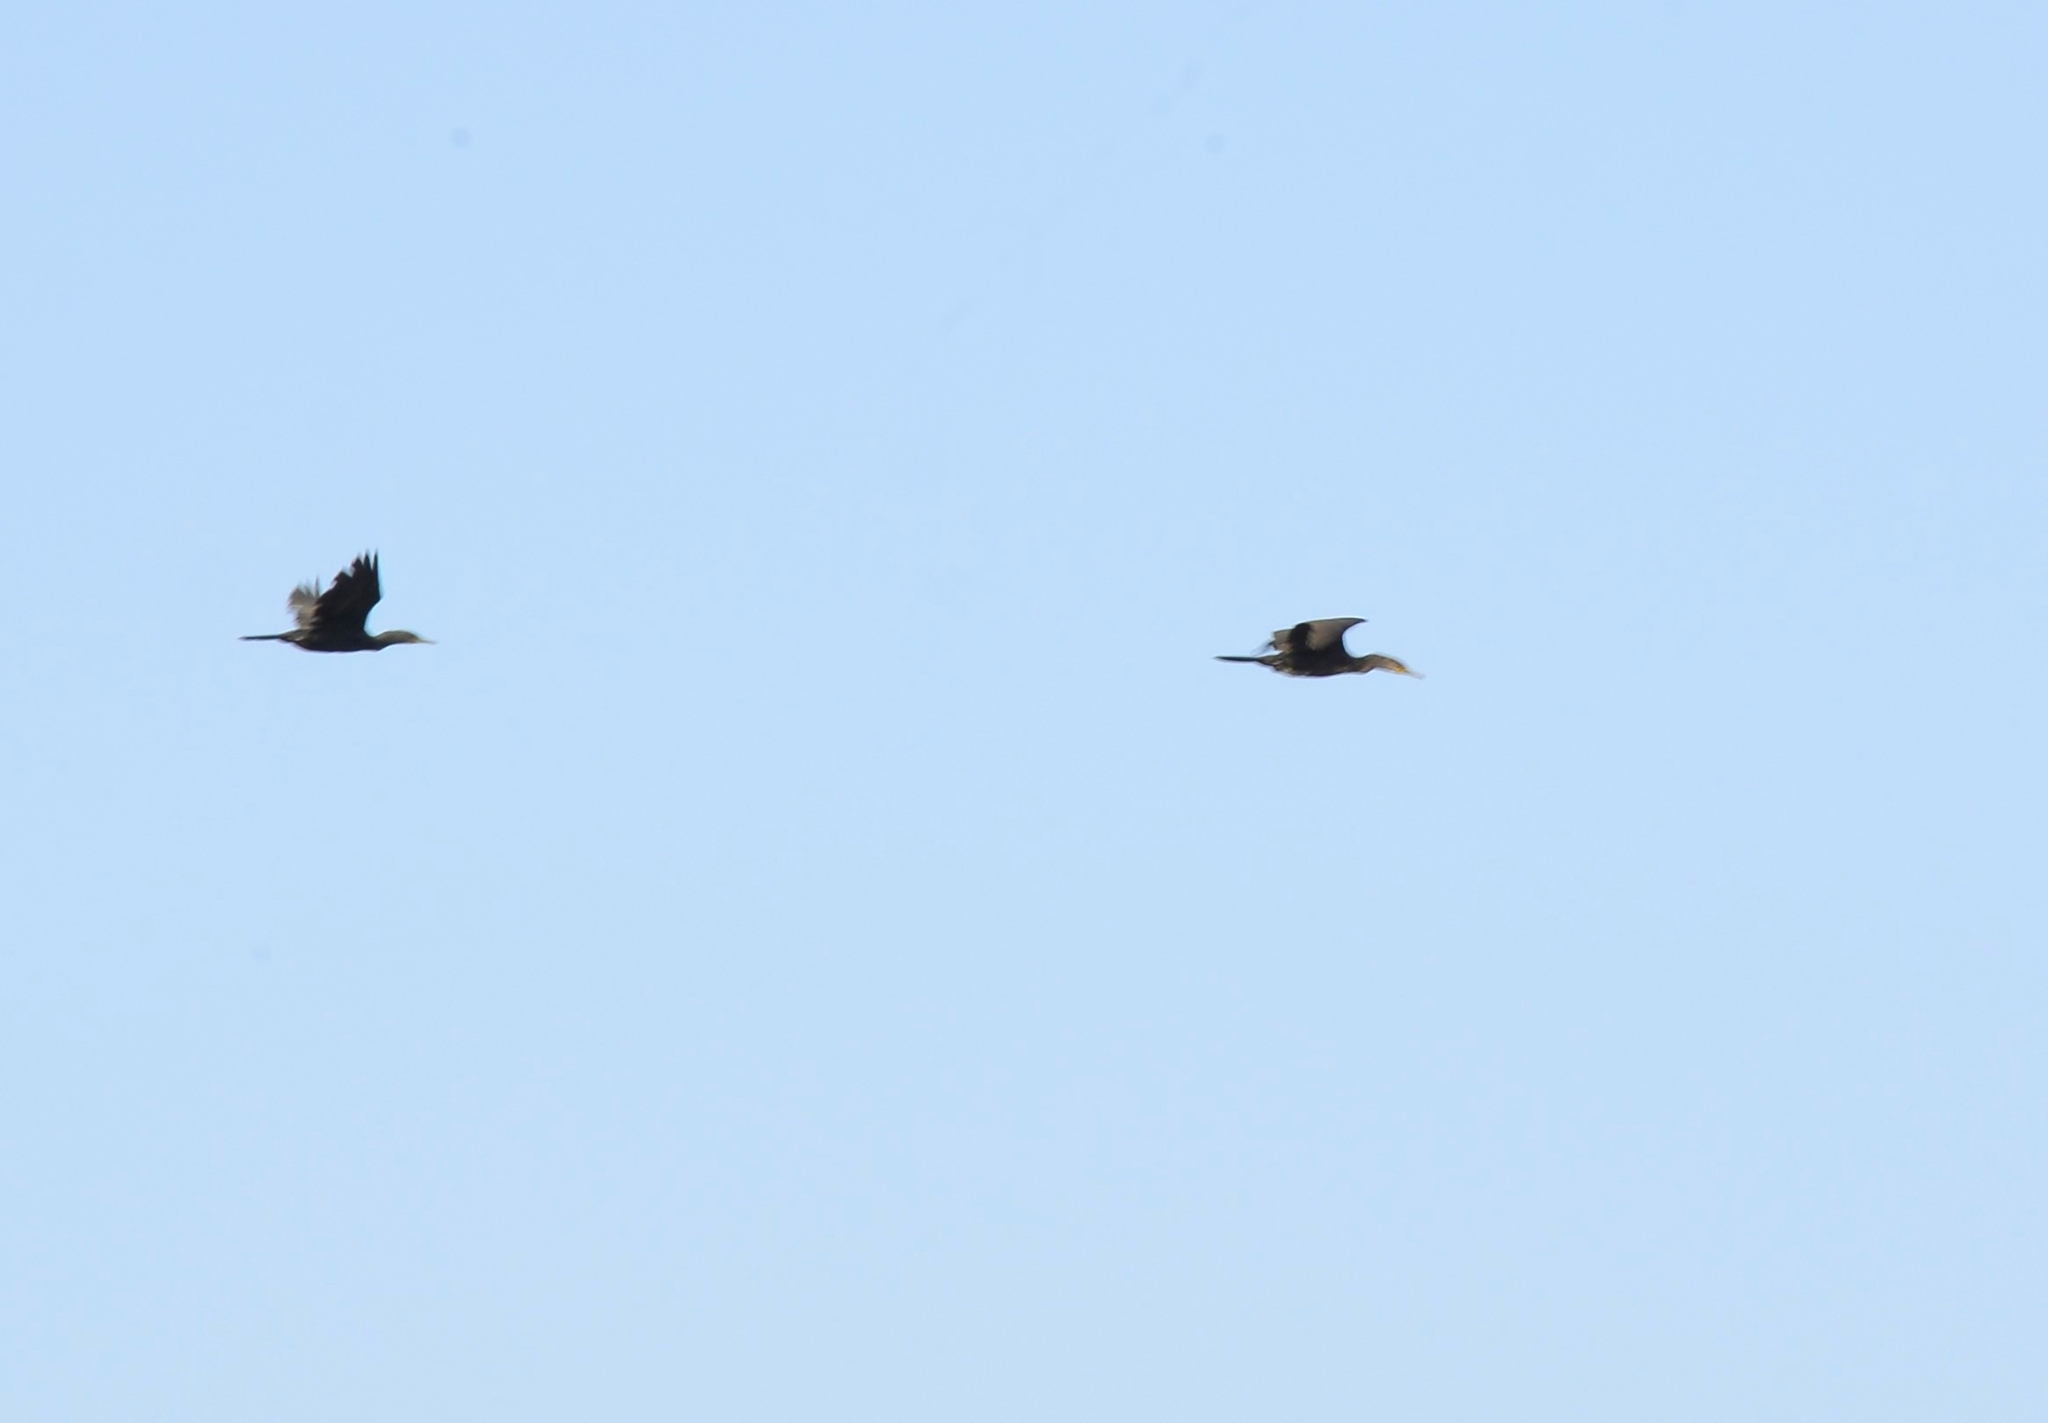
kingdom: Animalia
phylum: Chordata
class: Aves
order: Suliformes
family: Phalacrocoracidae
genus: Phalacrocorax
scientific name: Phalacrocorax fuscicollis
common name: Indian cormorant
